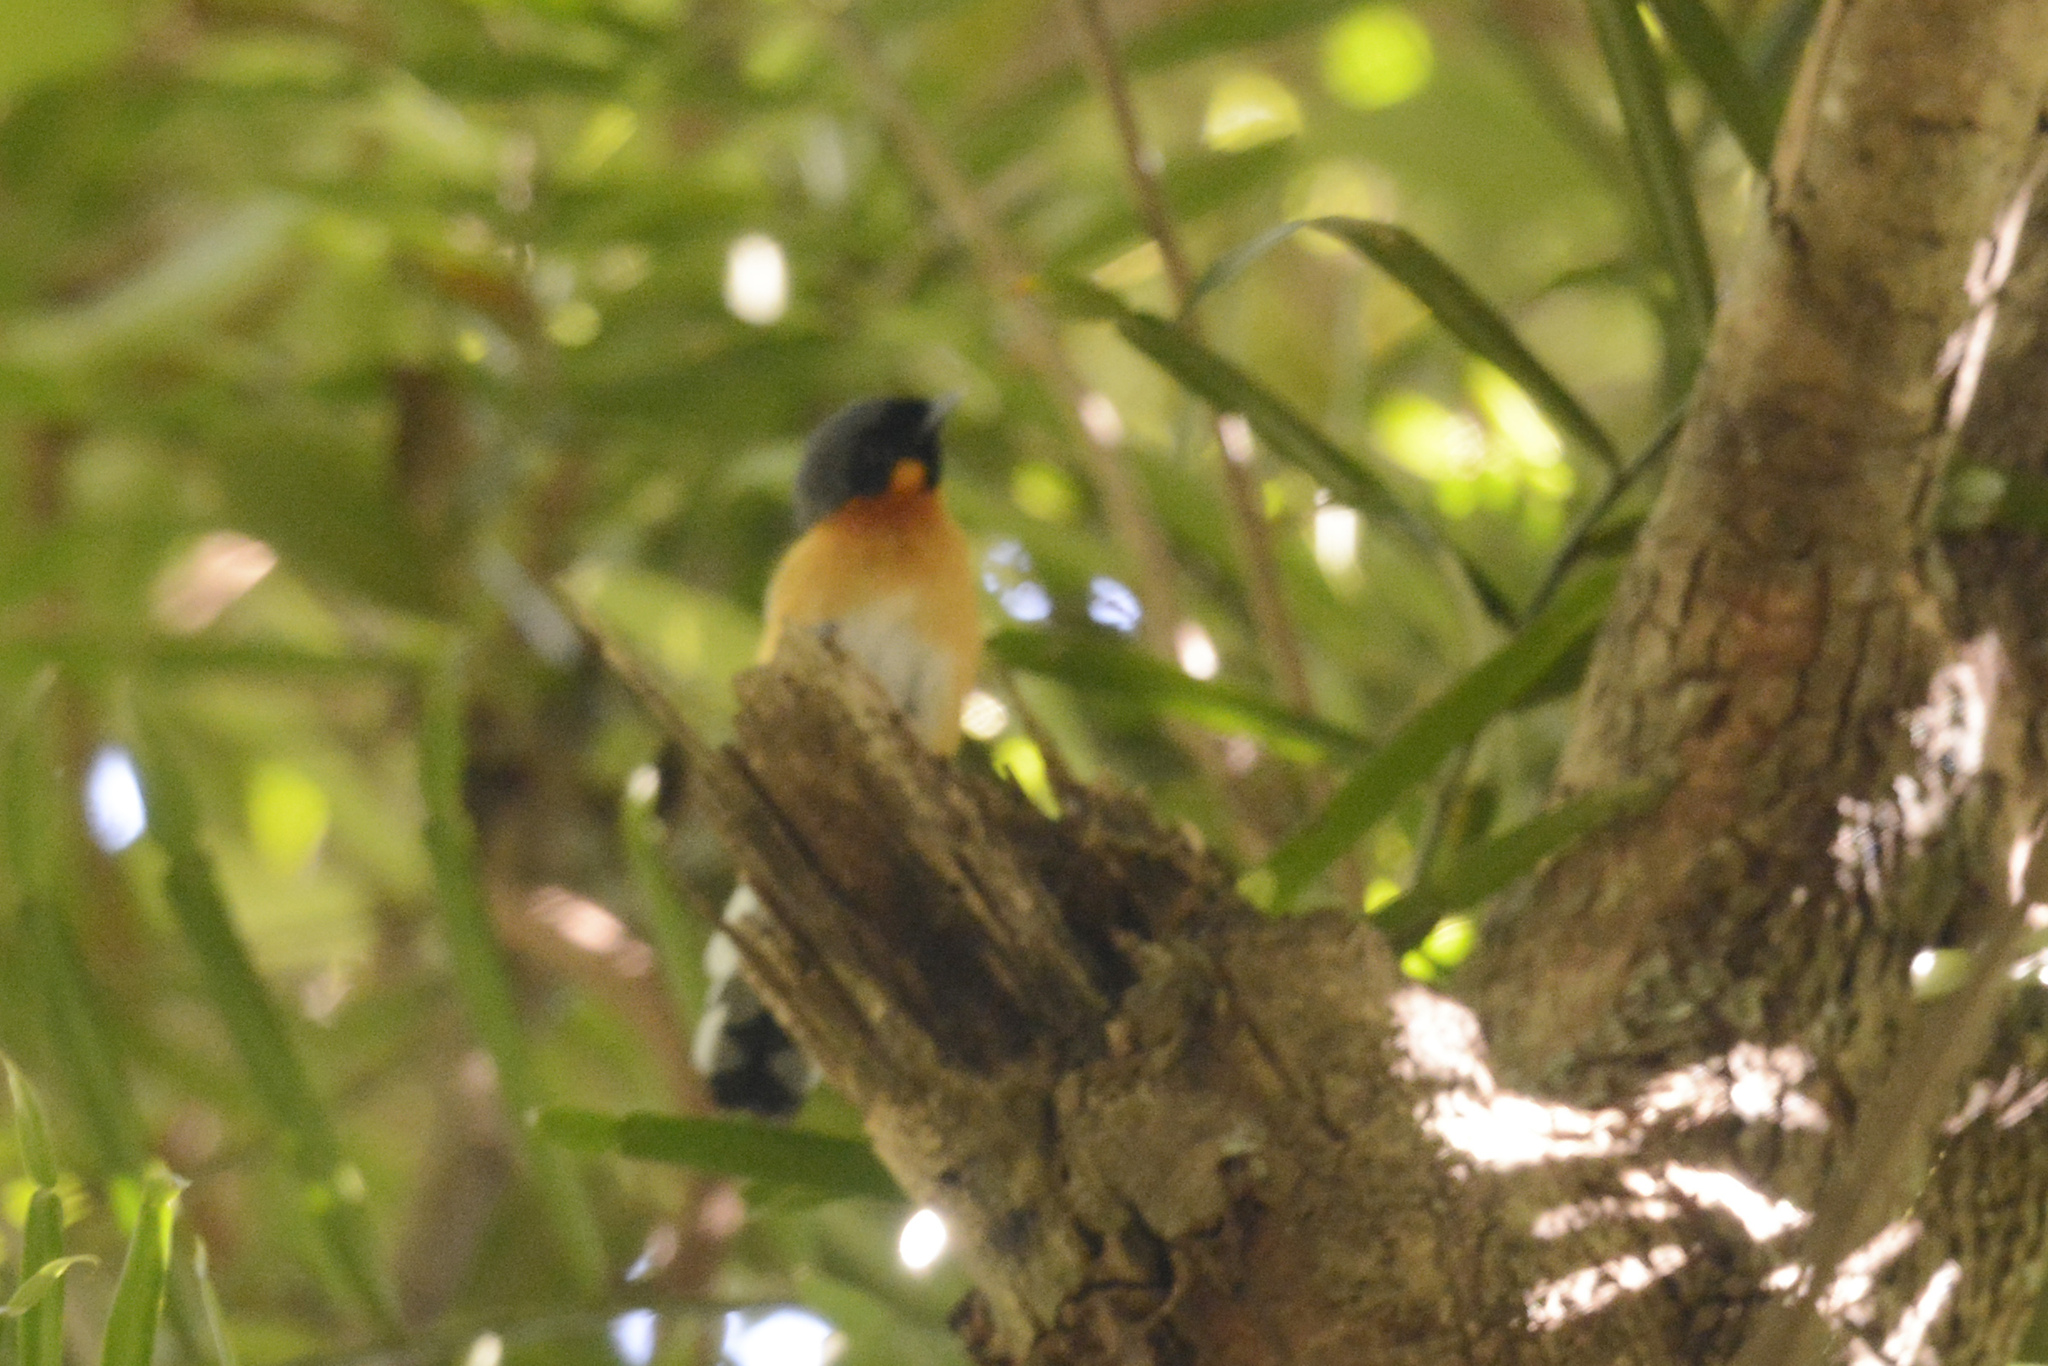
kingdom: Animalia
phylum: Chordata
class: Aves
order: Passeriformes
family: Monarchidae
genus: Symposiachrus
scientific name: Symposiachrus trivirgatus
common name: Spectacled monarch
